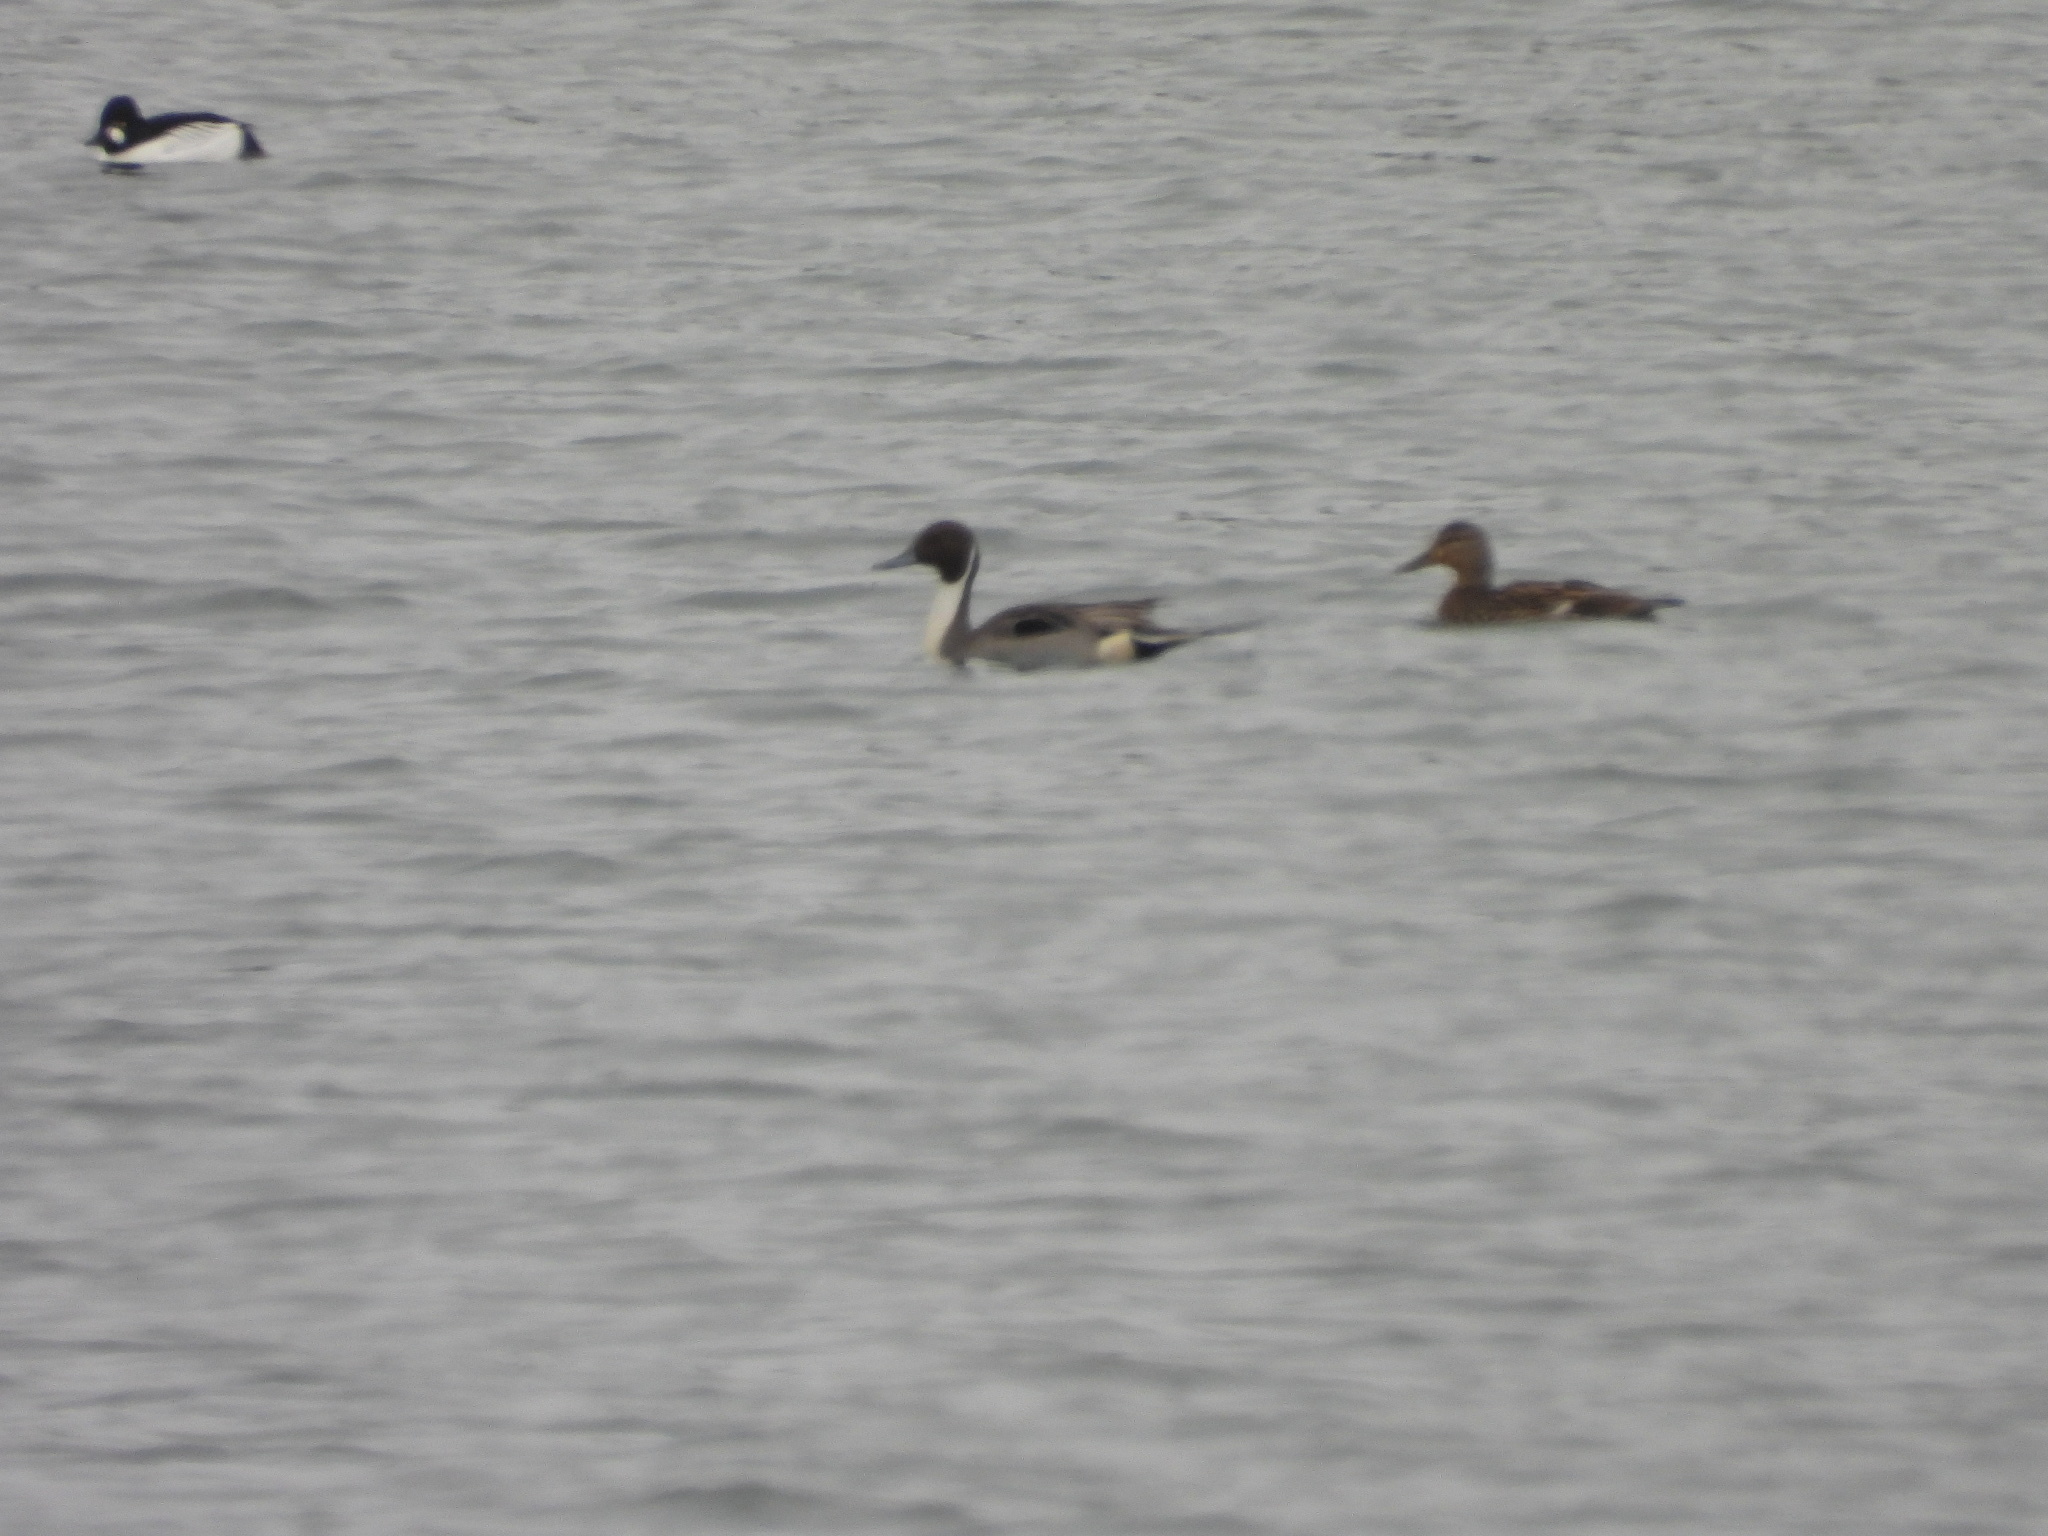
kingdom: Animalia
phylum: Chordata
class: Aves
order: Anseriformes
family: Anatidae
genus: Anas
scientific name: Anas acuta
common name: Northern pintail
